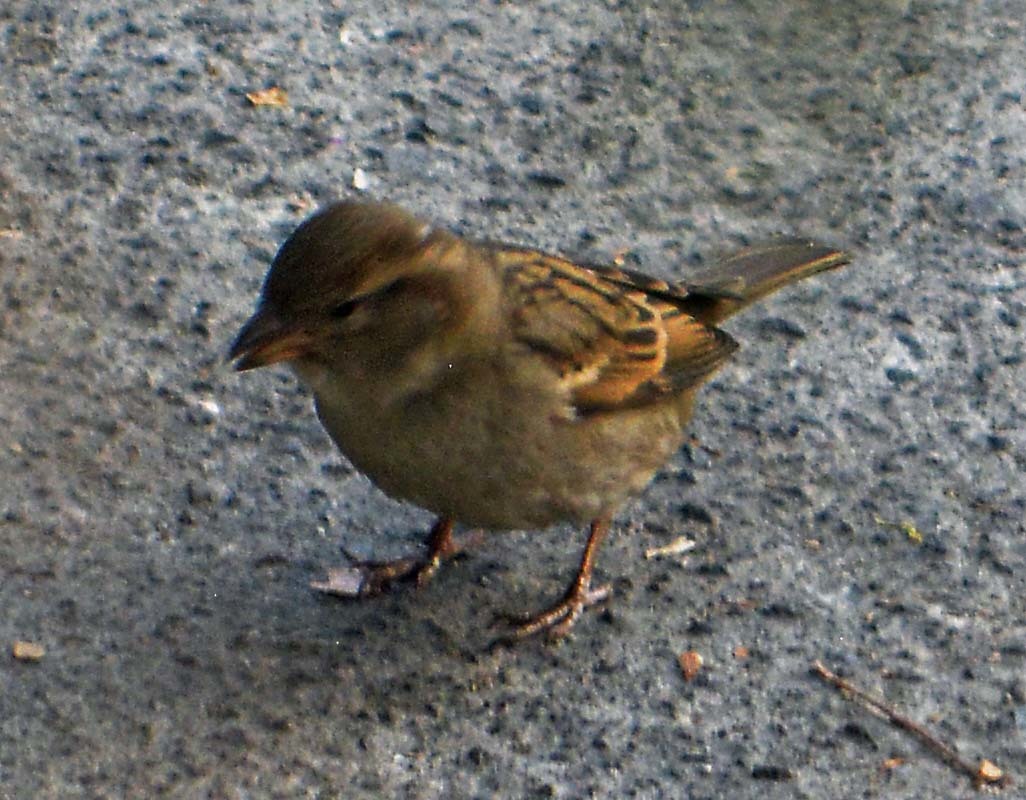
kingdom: Animalia
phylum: Chordata
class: Aves
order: Passeriformes
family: Passeridae
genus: Passer
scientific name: Passer domesticus
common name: House sparrow
